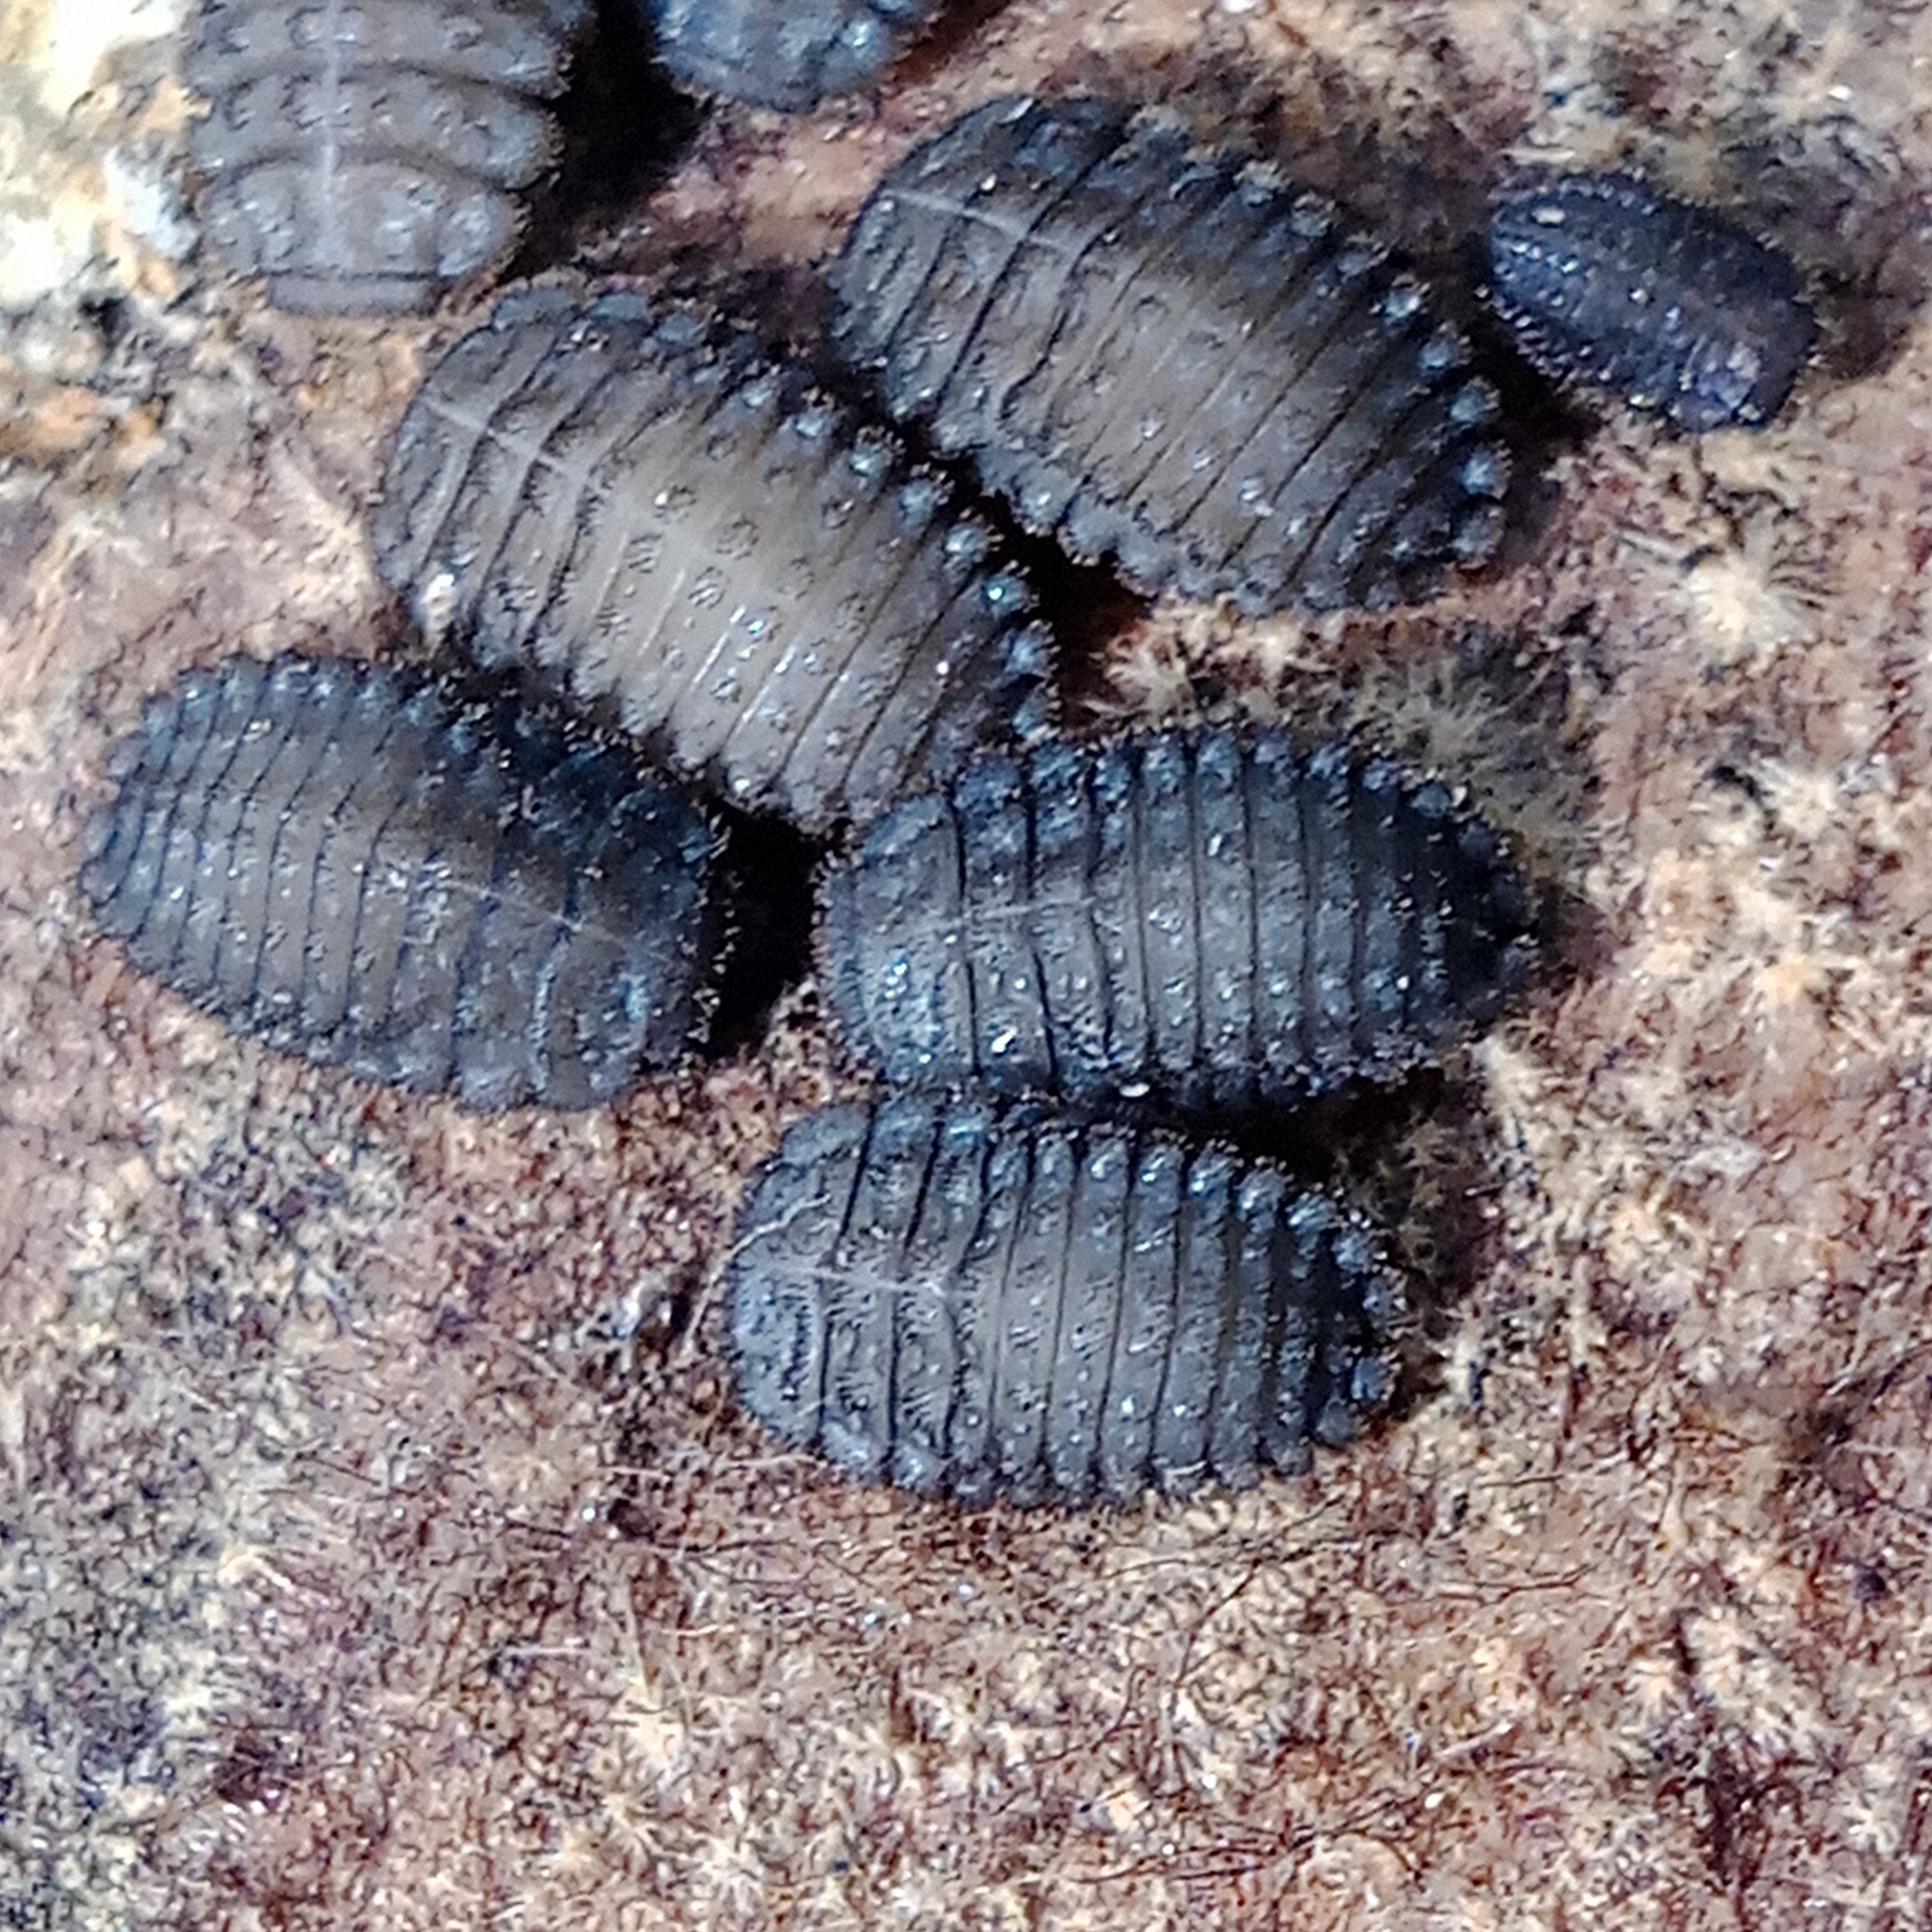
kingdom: Animalia
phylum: Arthropoda
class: Insecta
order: Coleoptera
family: Endomychidae
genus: Mycetina
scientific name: Mycetina cruciata
